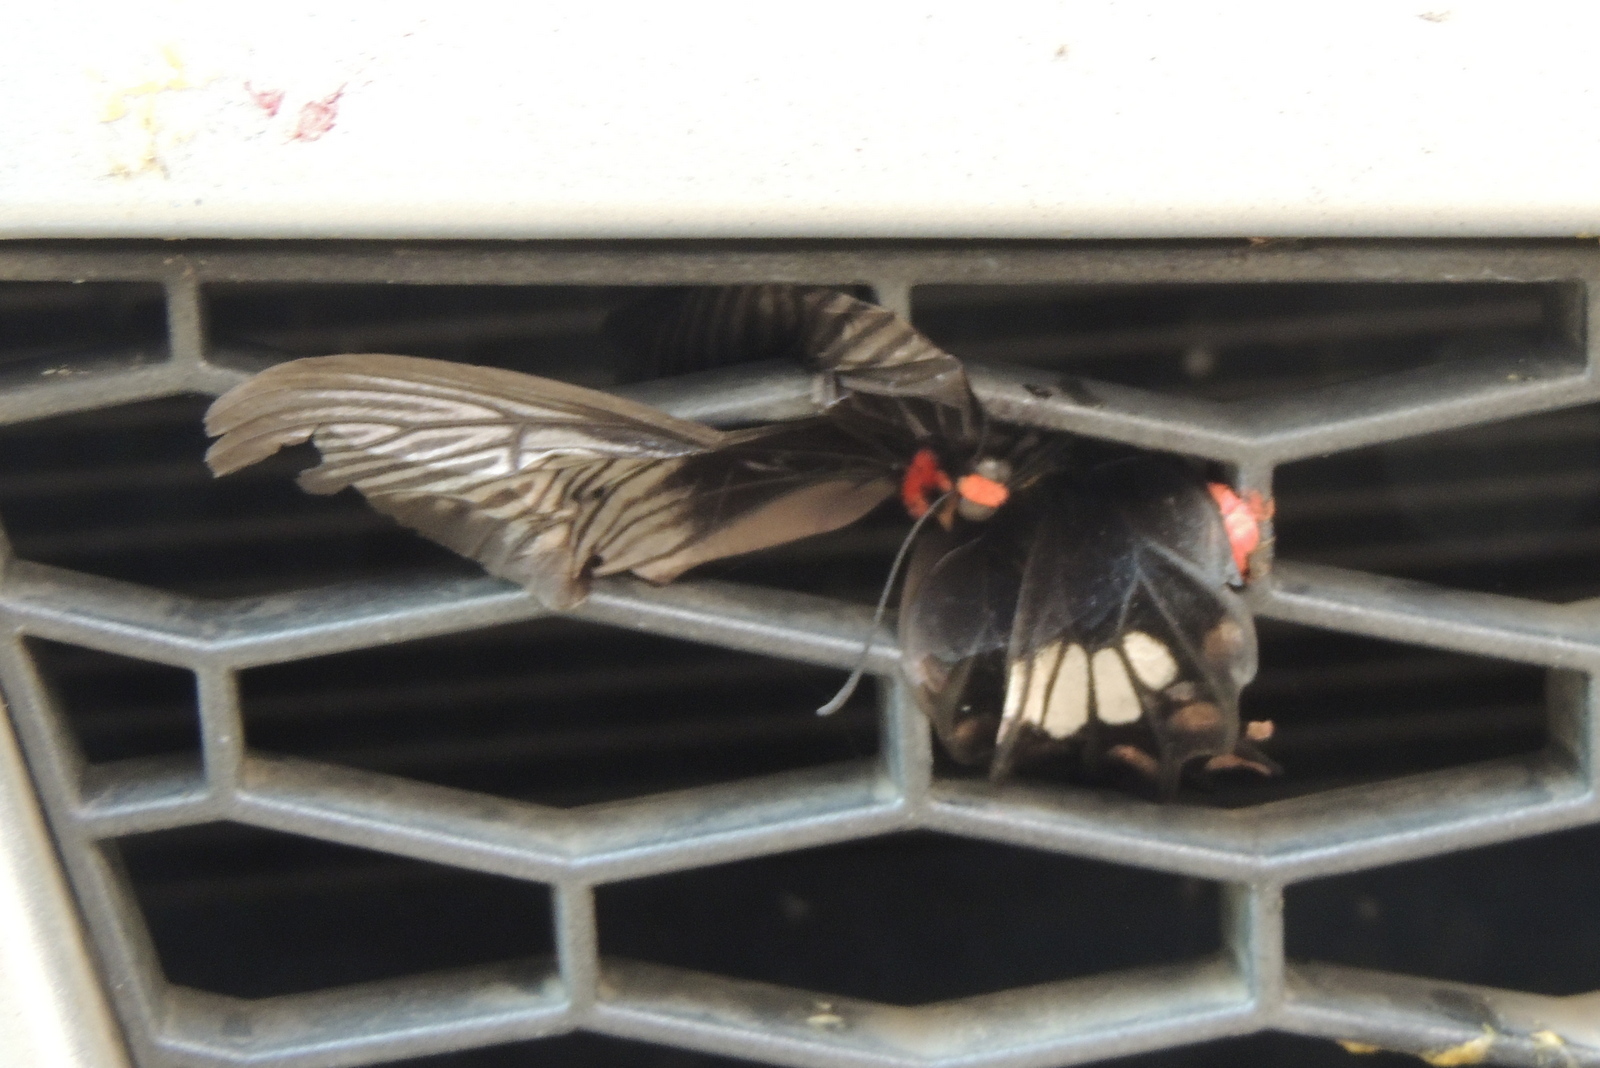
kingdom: Animalia
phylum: Arthropoda
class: Insecta
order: Lepidoptera
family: Papilionidae
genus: Pachliopta
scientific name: Pachliopta aristolochiae
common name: Common rose
